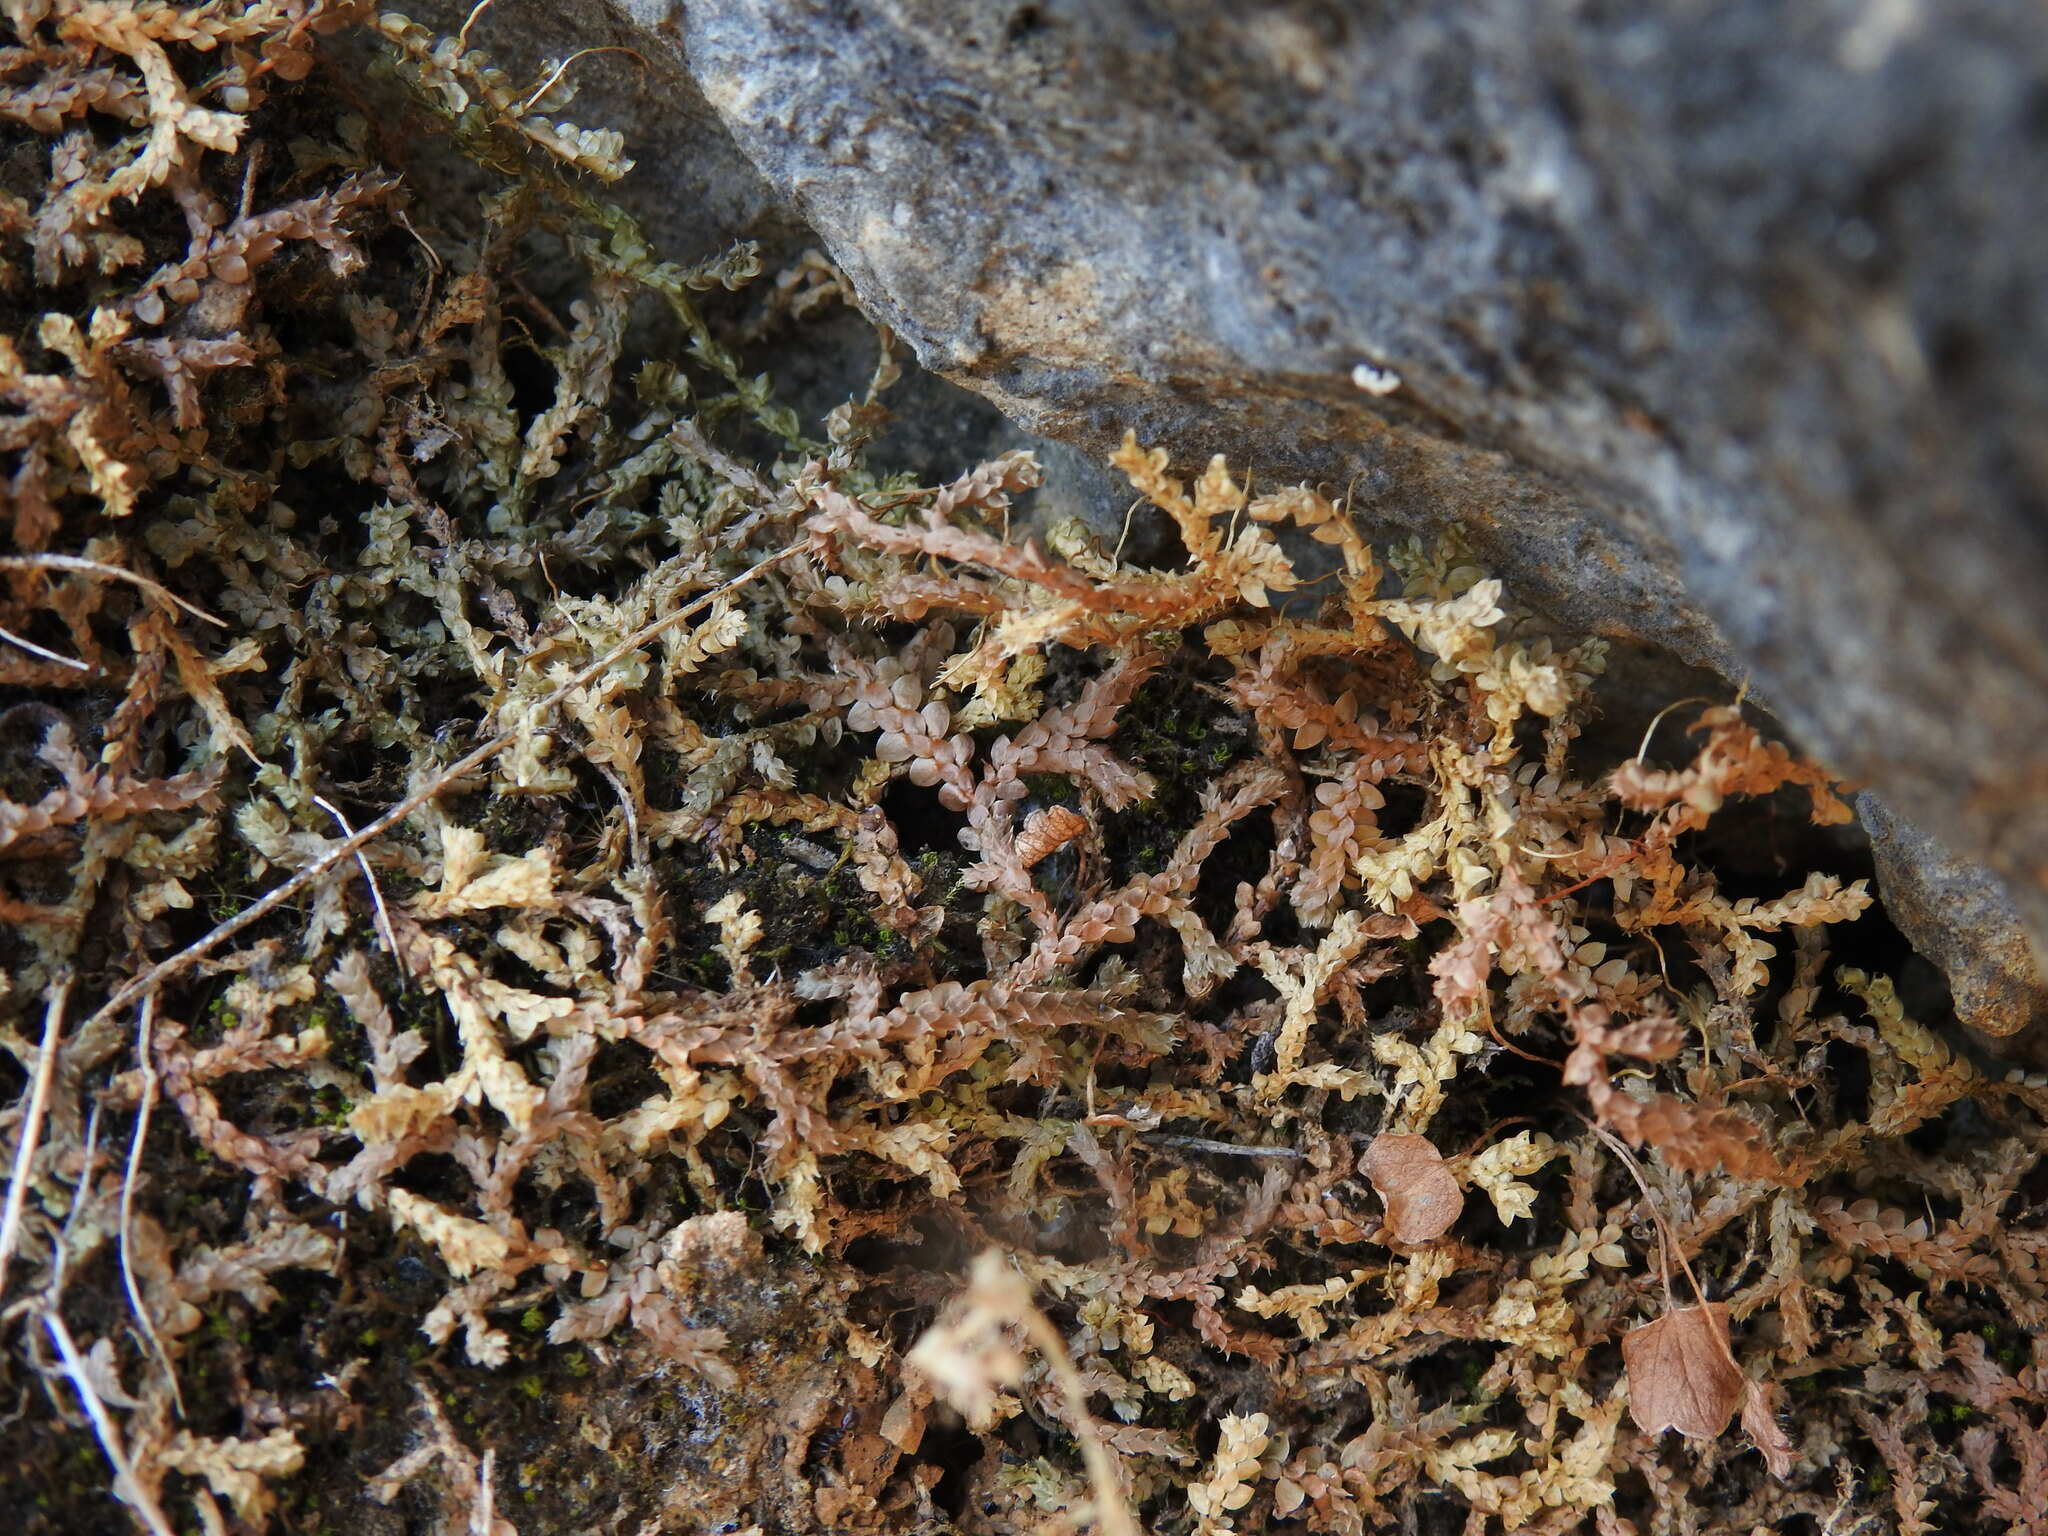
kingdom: Plantae
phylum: Tracheophyta
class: Lycopodiopsida
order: Selaginellales
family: Selaginellaceae
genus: Selaginella
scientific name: Selaginella denticulata
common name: Toothed-leaved clubmoss
